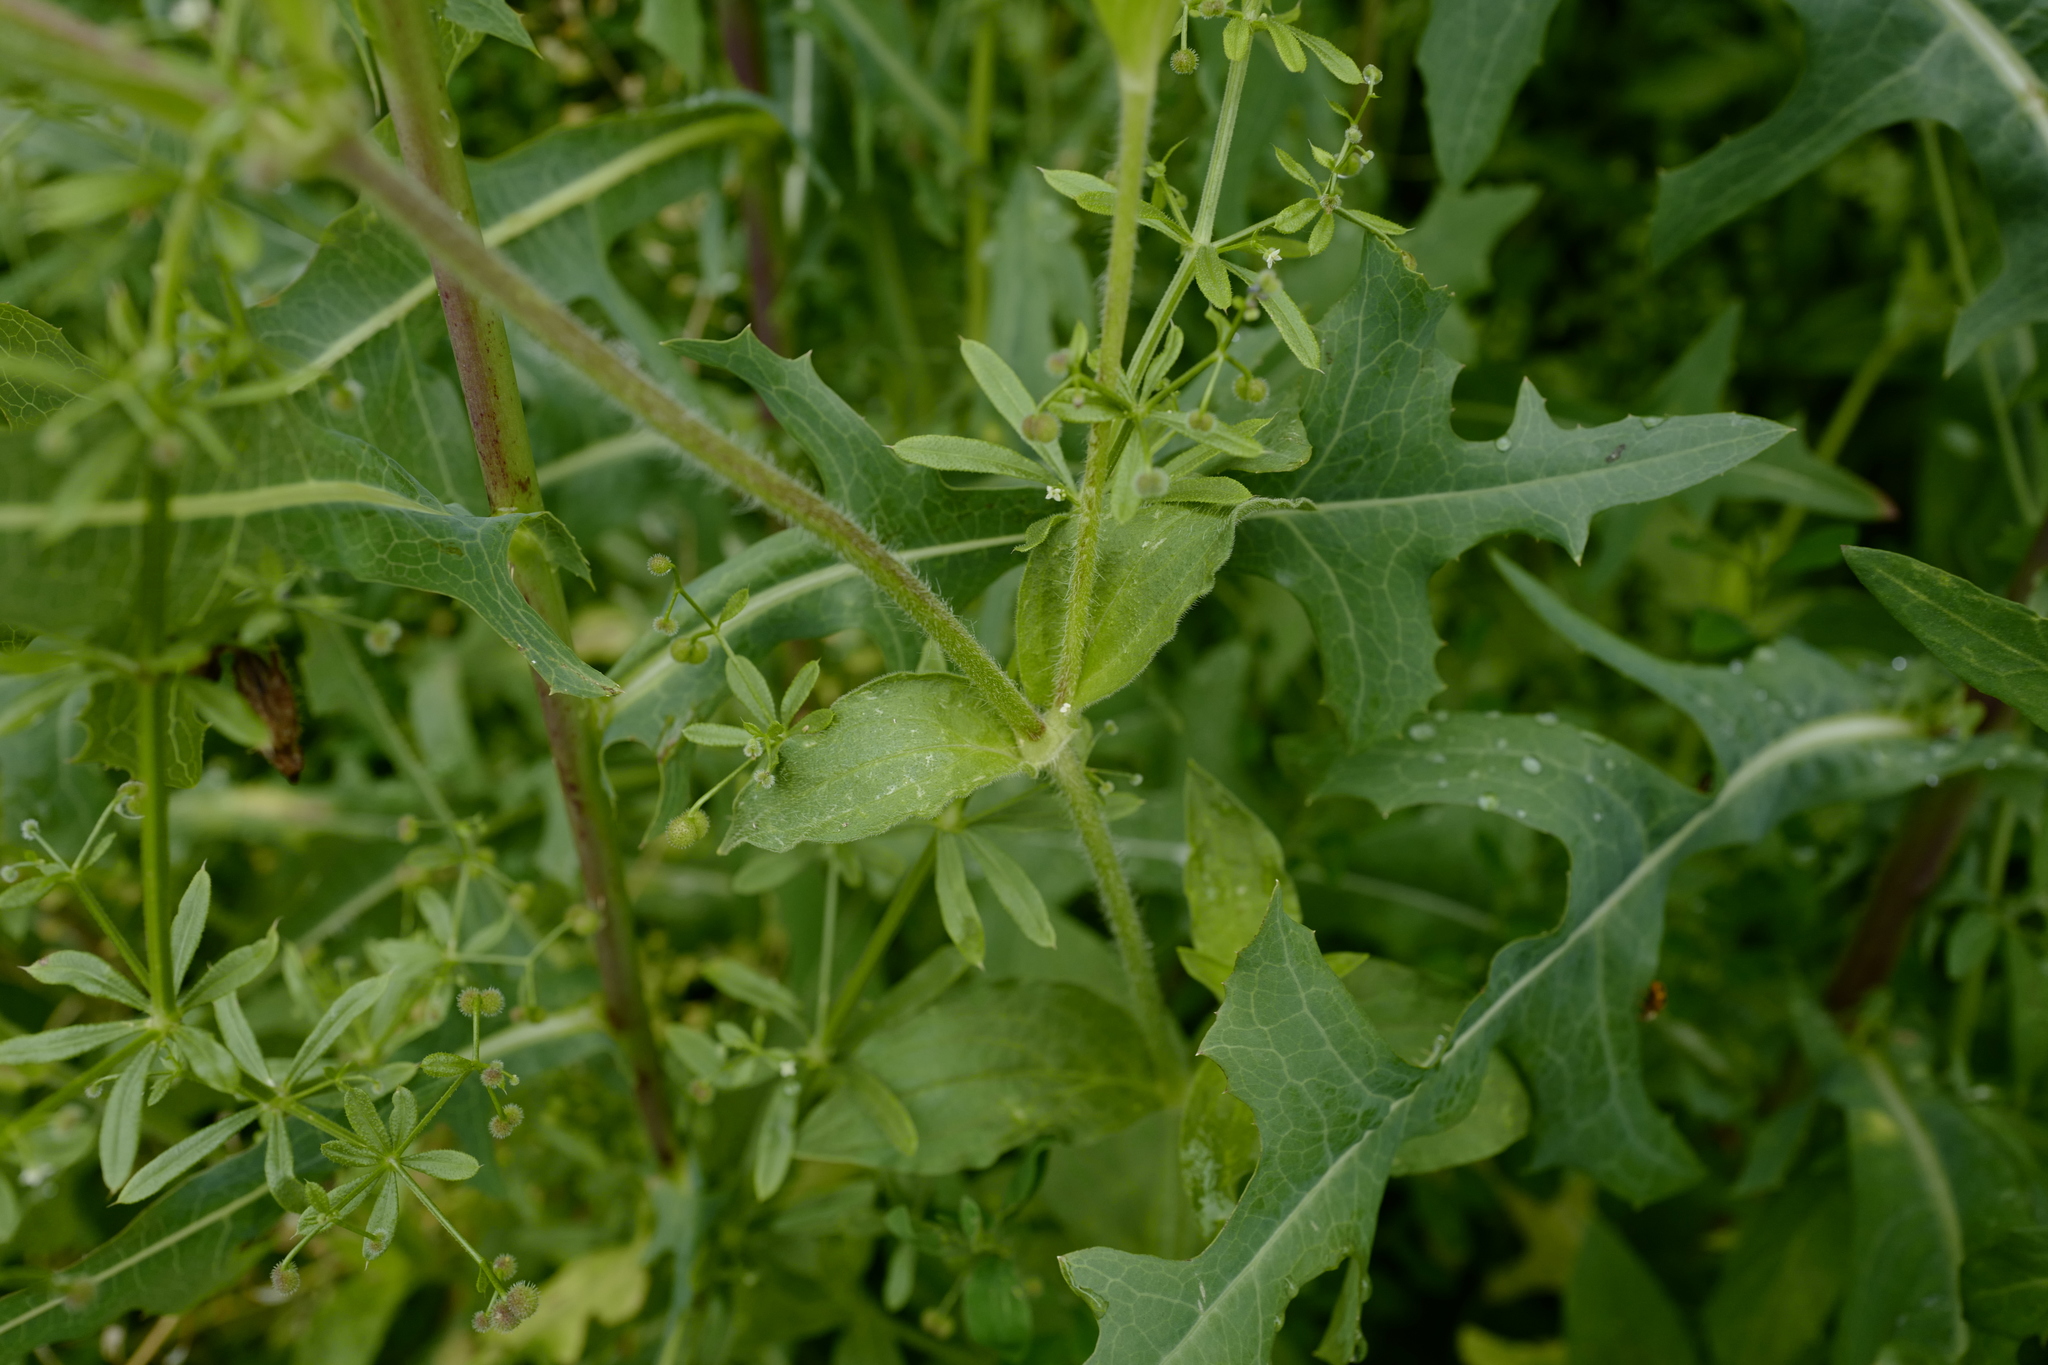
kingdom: Plantae
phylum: Tracheophyta
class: Magnoliopsida
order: Caryophyllales
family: Caryophyllaceae
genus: Silene
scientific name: Silene latifolia
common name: White campion
